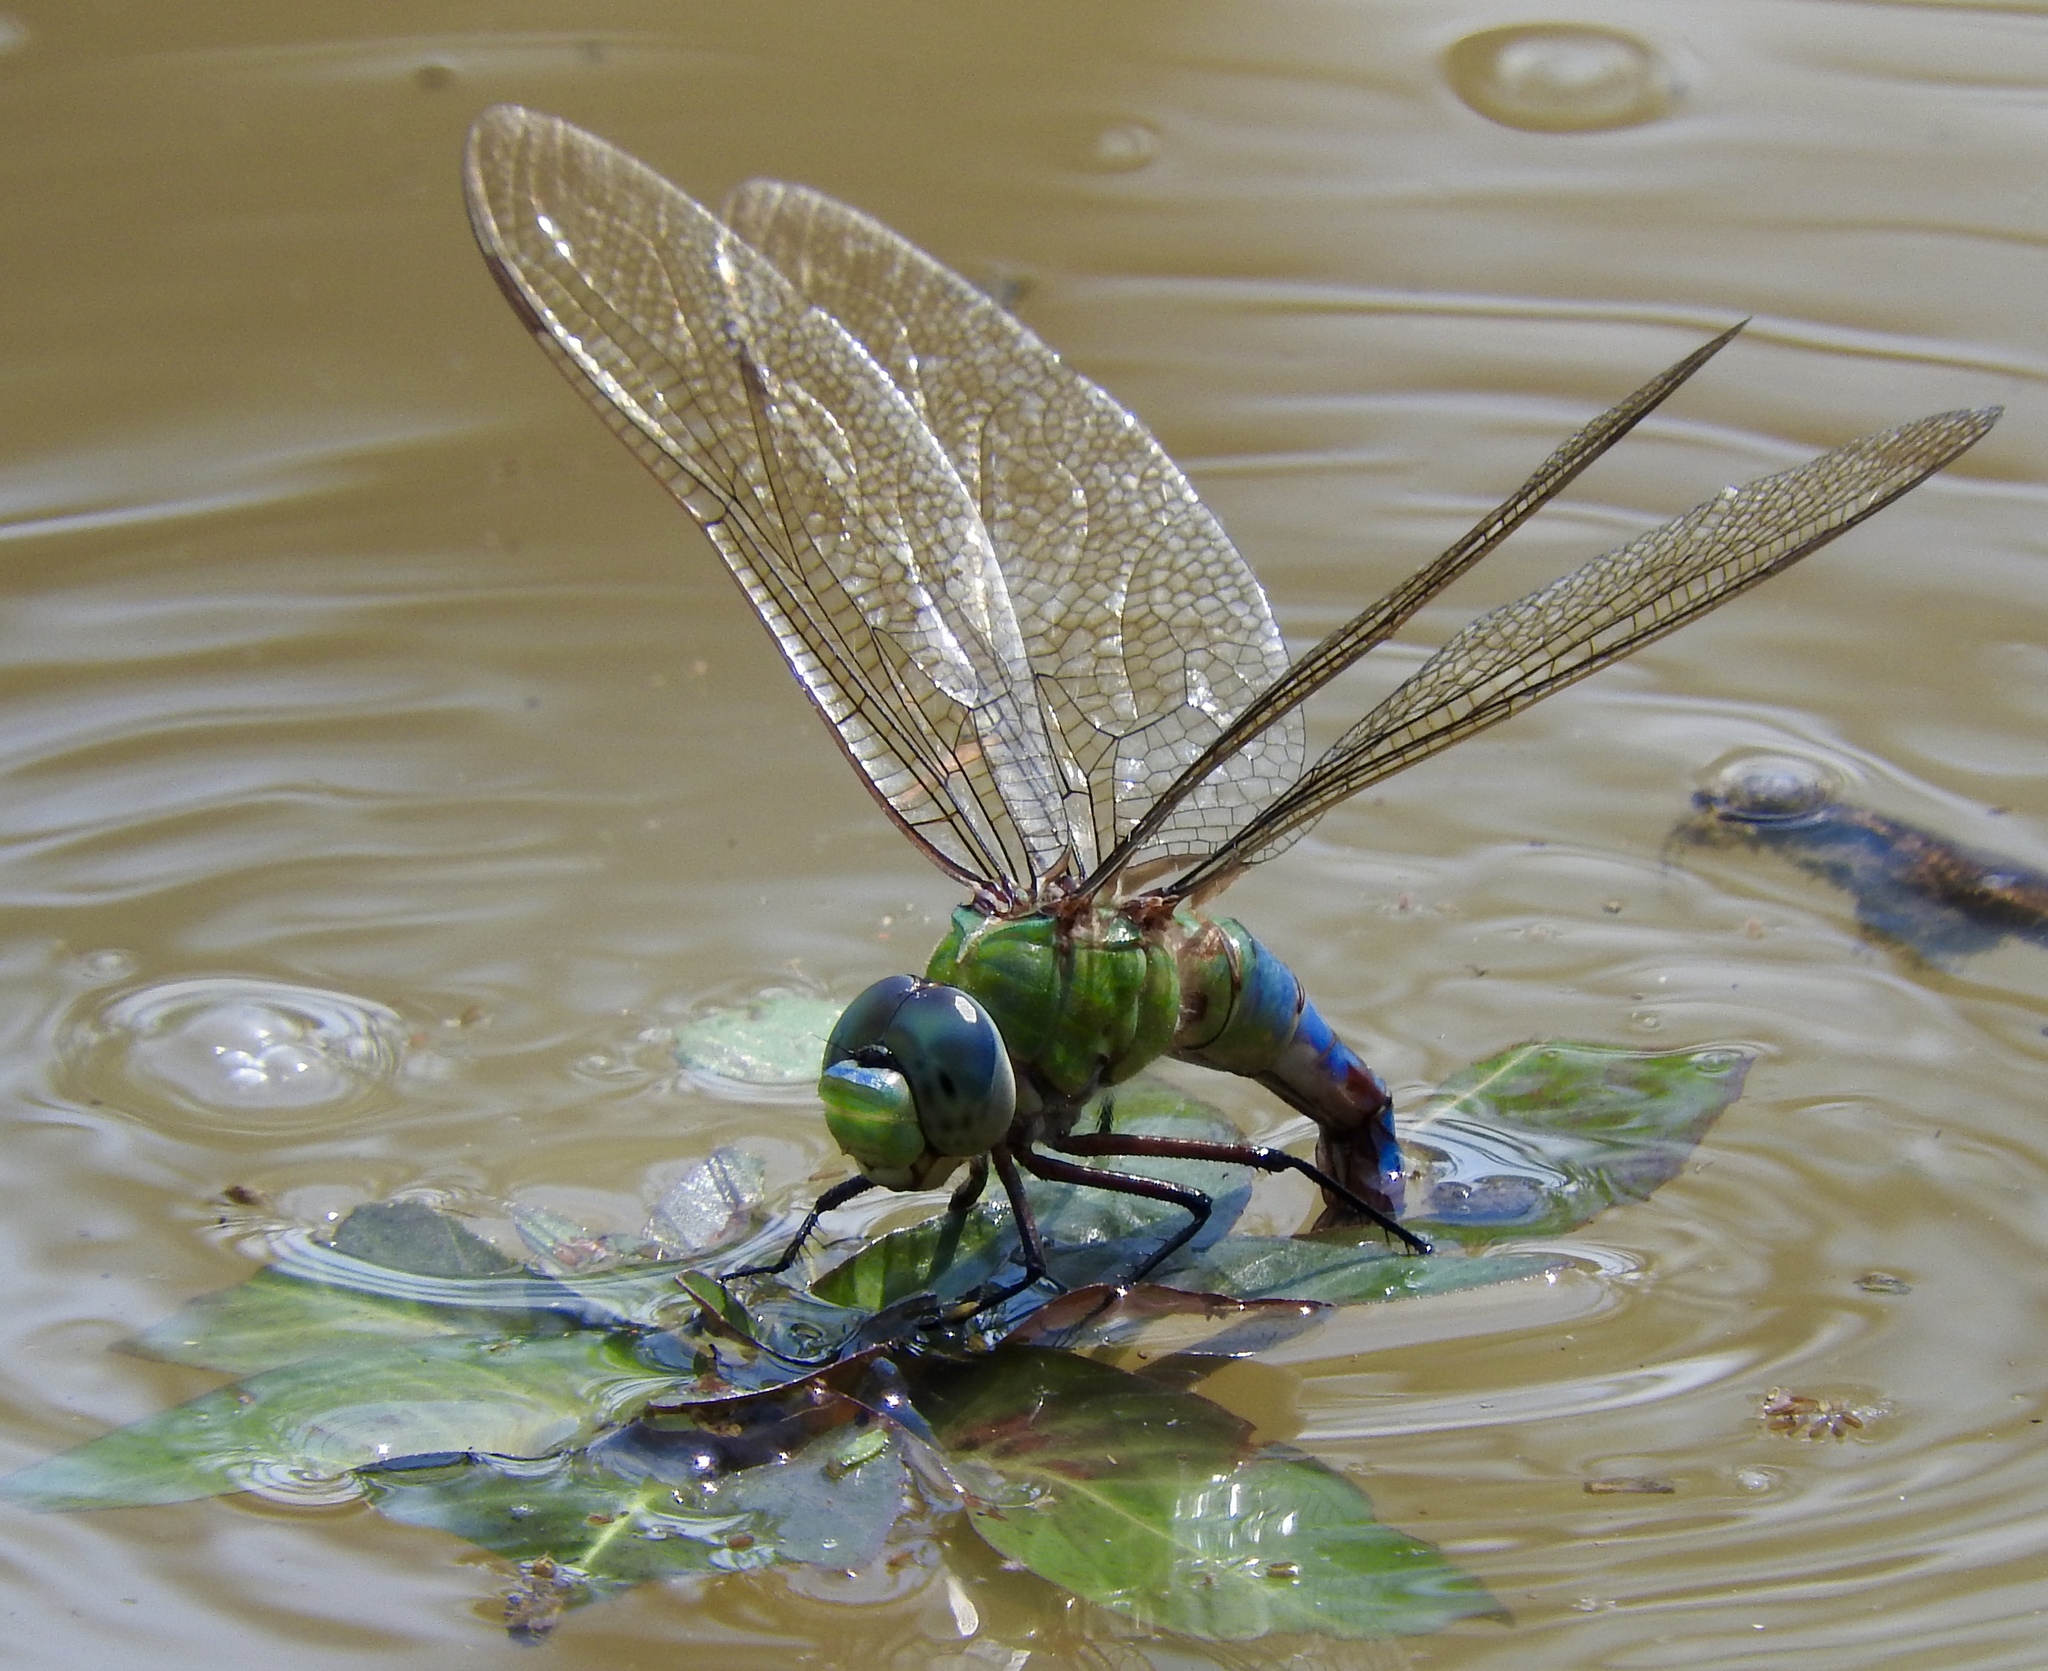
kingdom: Animalia
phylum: Arthropoda
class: Insecta
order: Odonata
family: Aeshnidae
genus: Anax
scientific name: Anax imperator
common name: Emperor dragonfly
